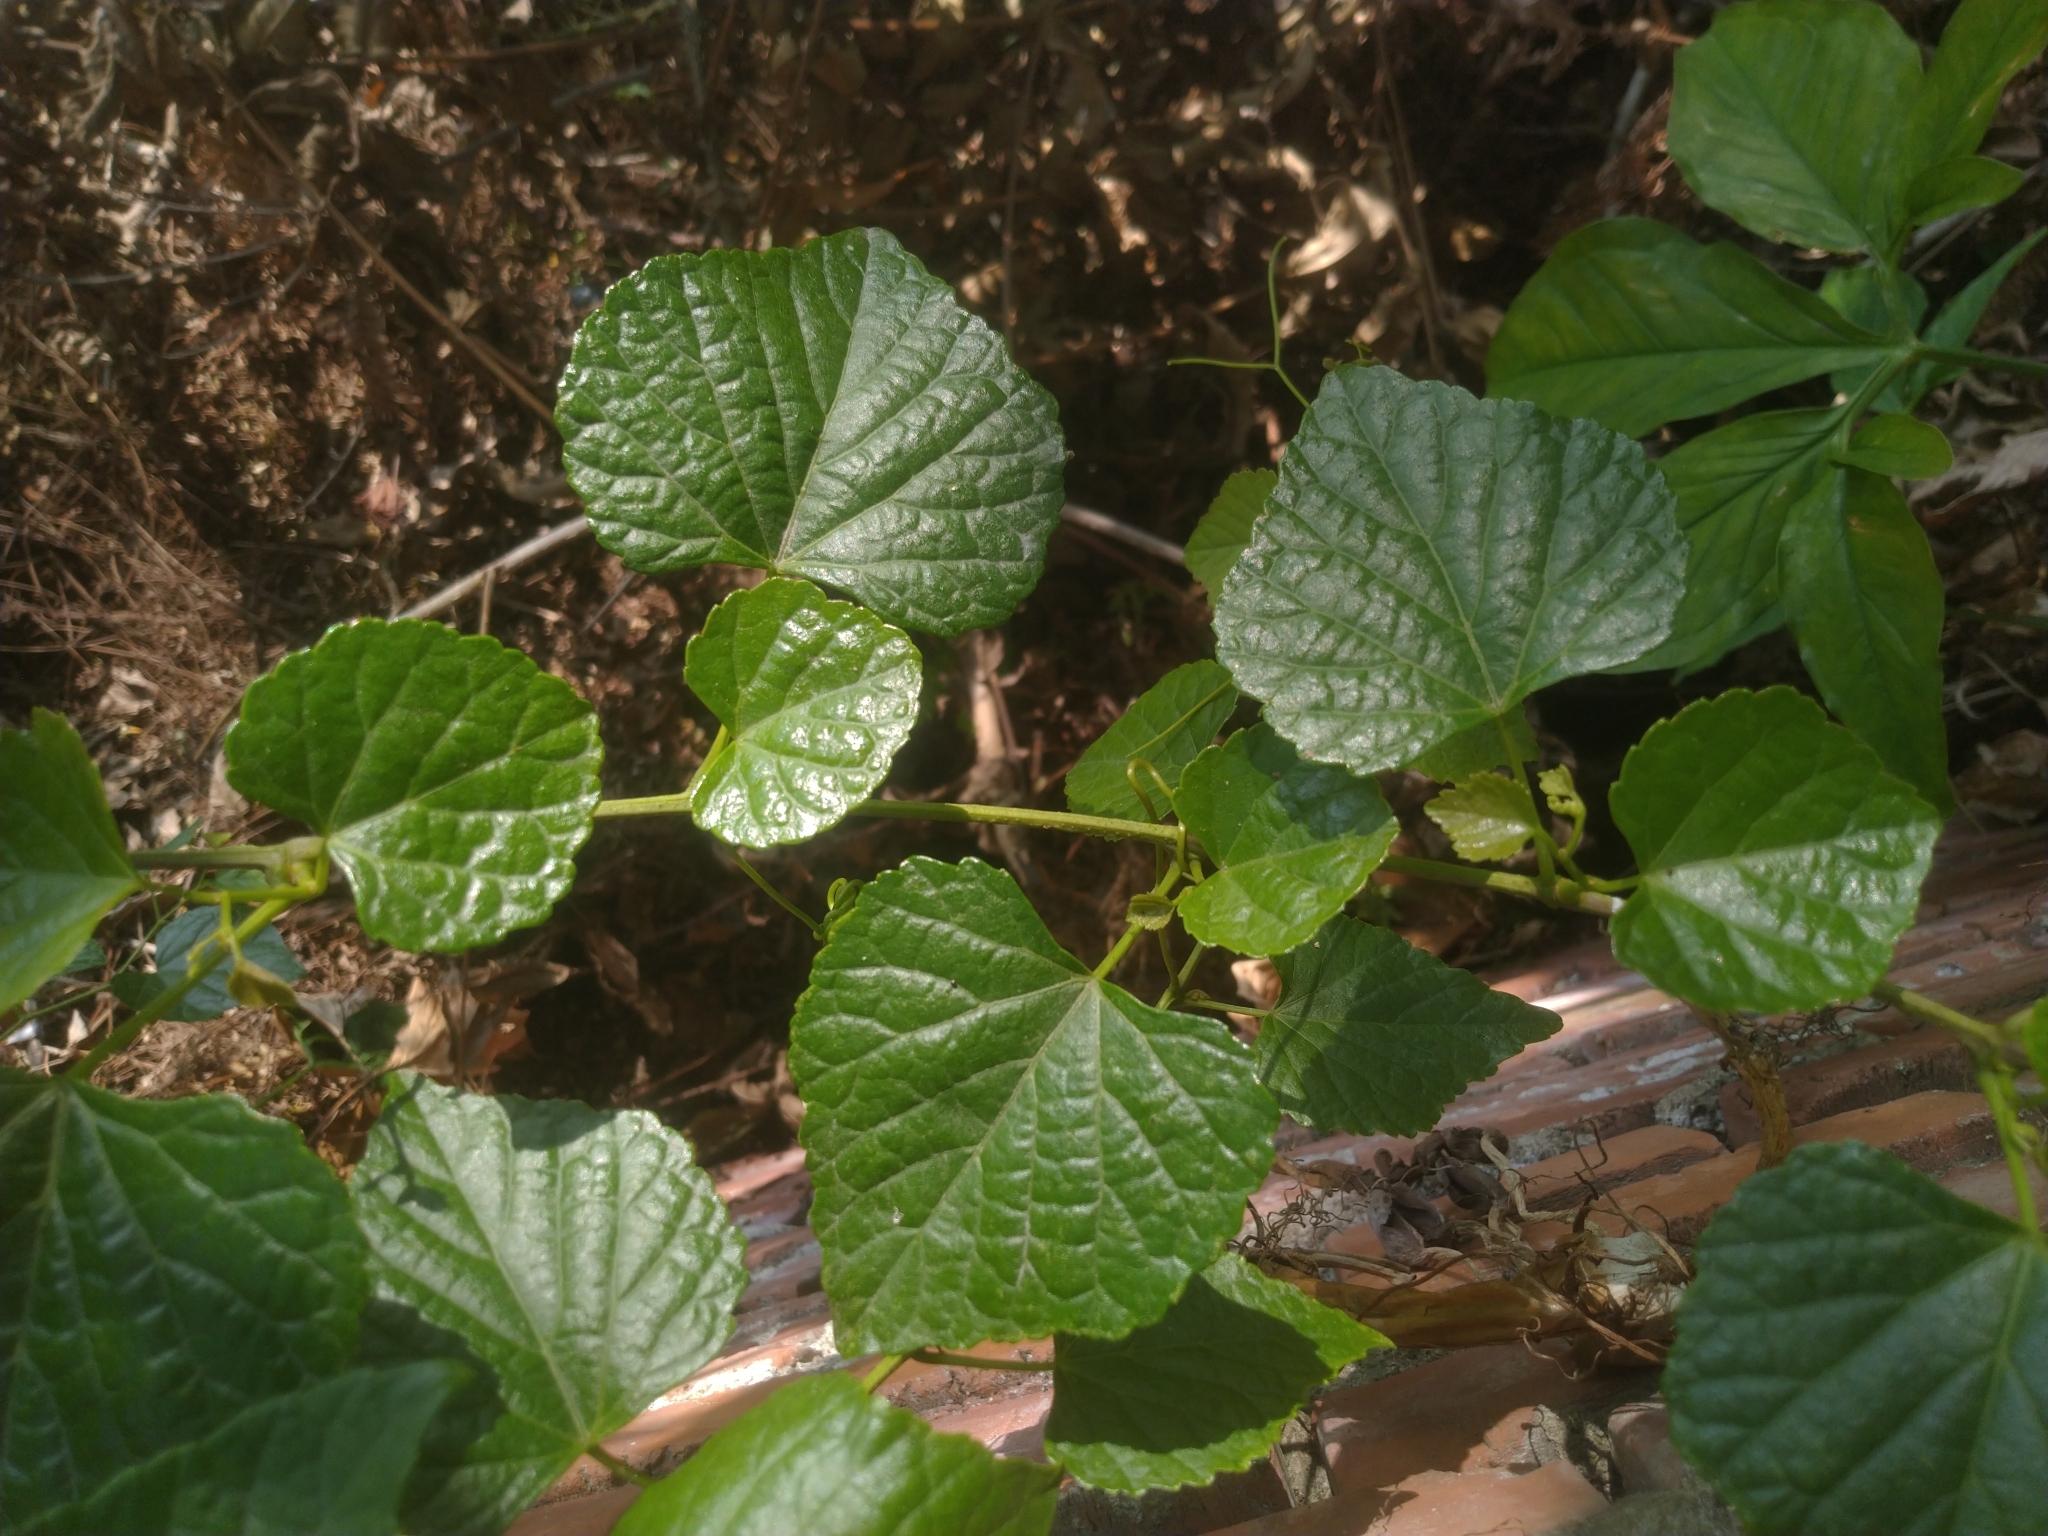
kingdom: Plantae
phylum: Tracheophyta
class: Magnoliopsida
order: Vitales
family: Vitaceae
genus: Ampelopsis
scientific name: Ampelopsis glandulosa
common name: Amur peppervine
